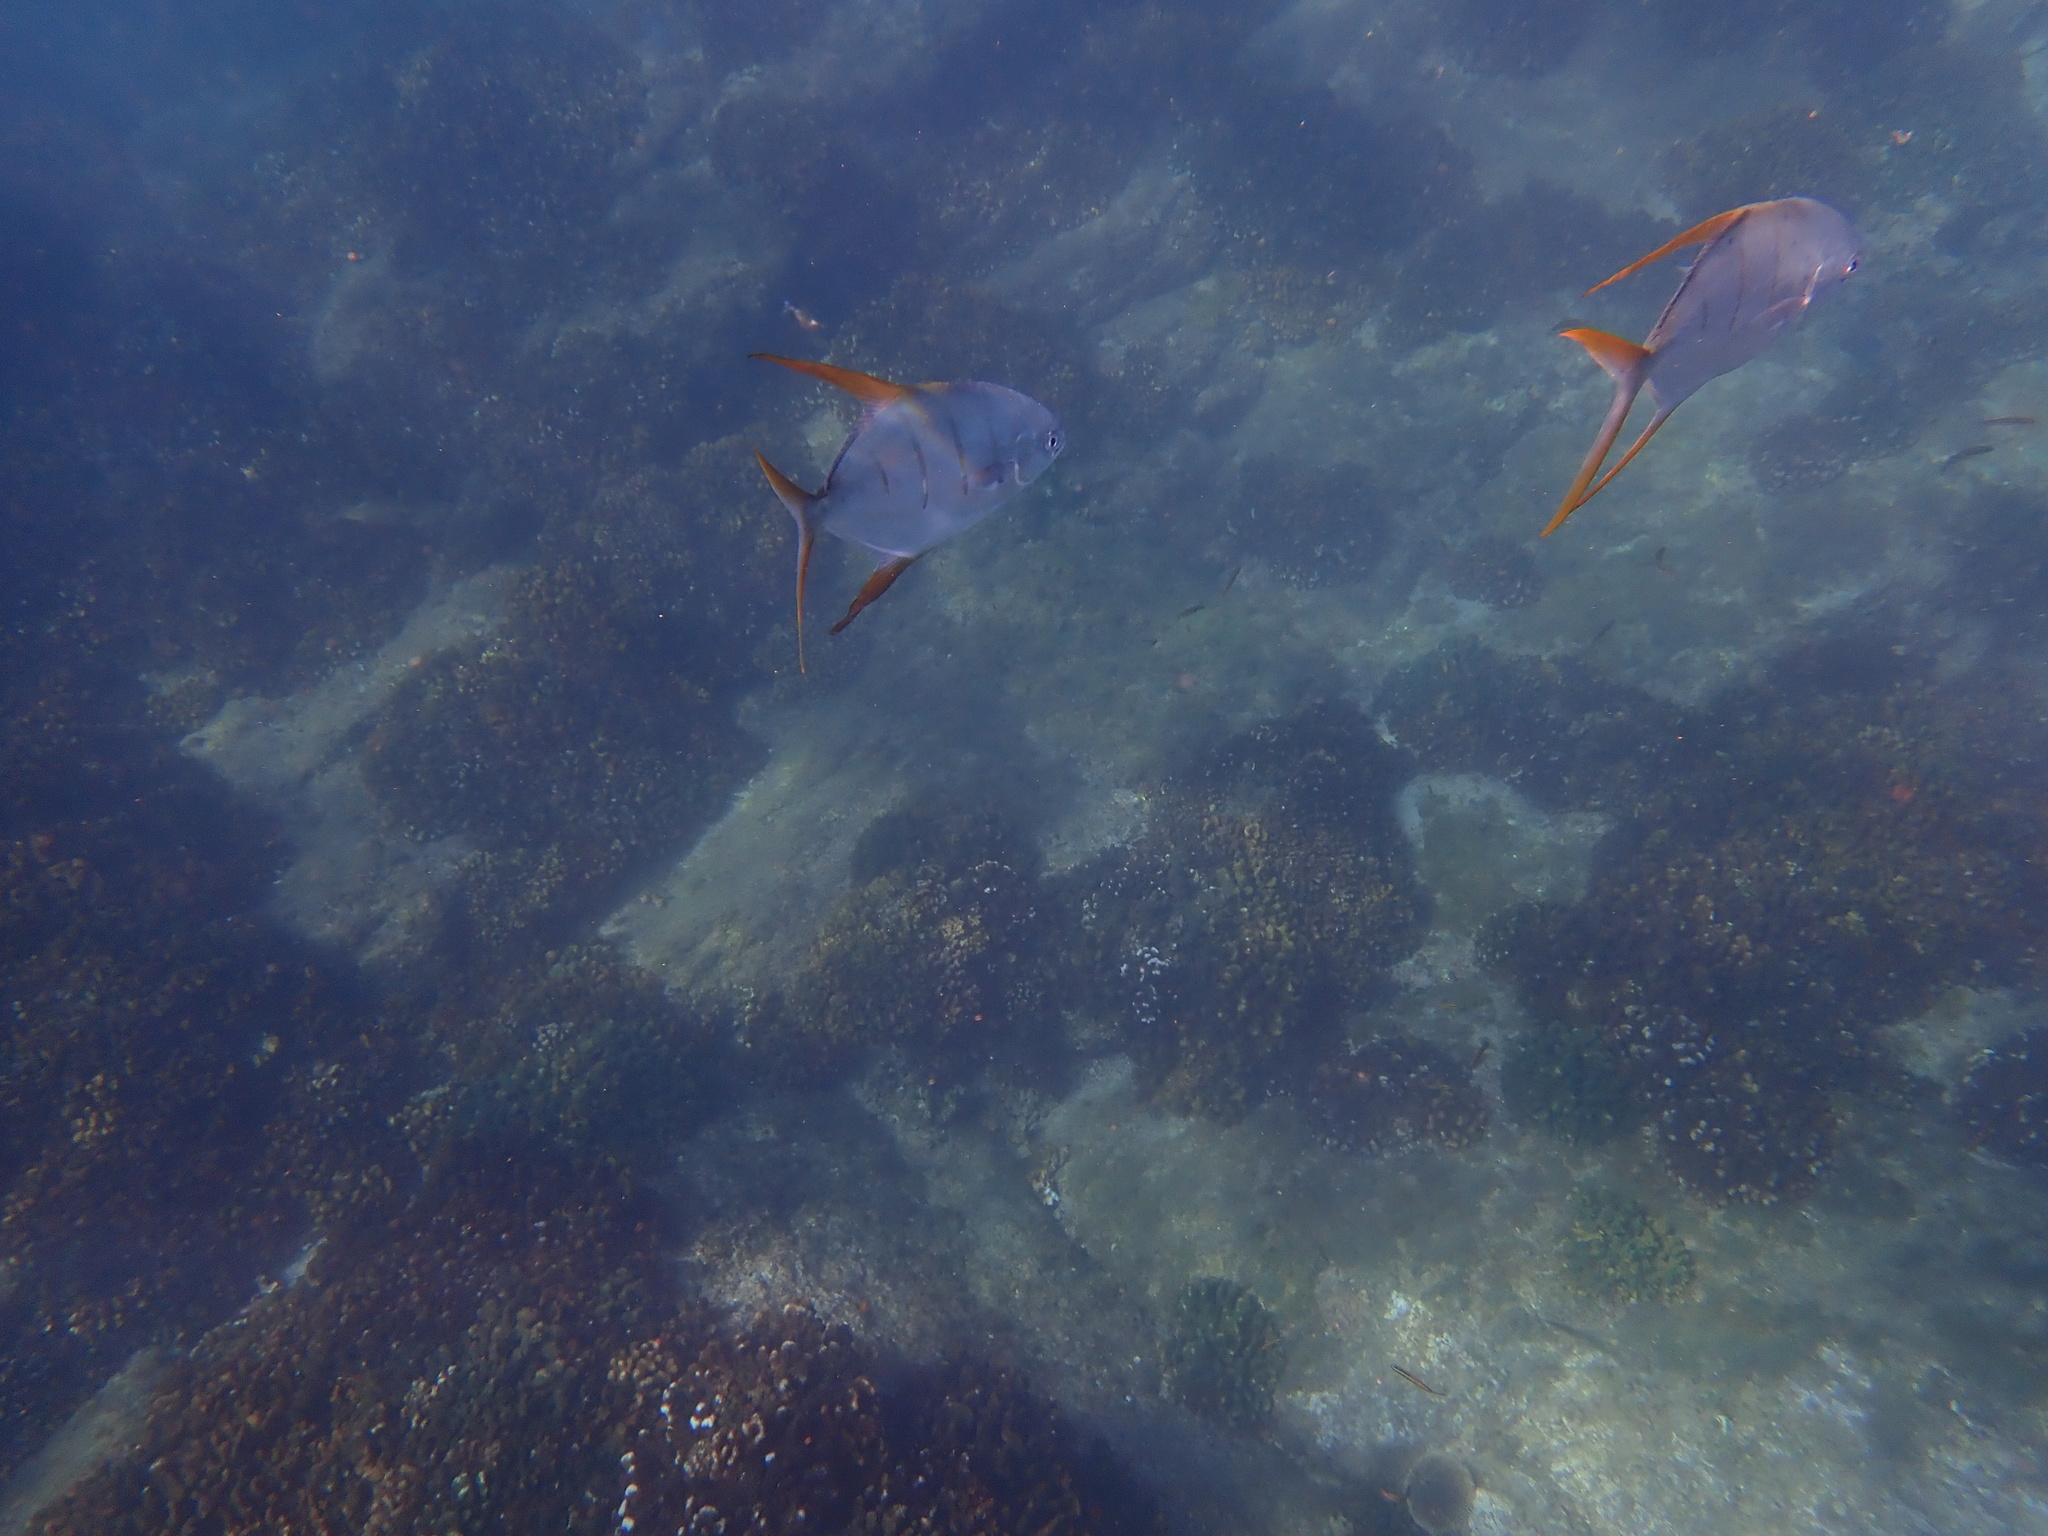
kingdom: Animalia
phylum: Chordata
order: Perciformes
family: Carangidae
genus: Trachinotus
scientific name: Trachinotus rhodopus
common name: Gafftopsail pompano
